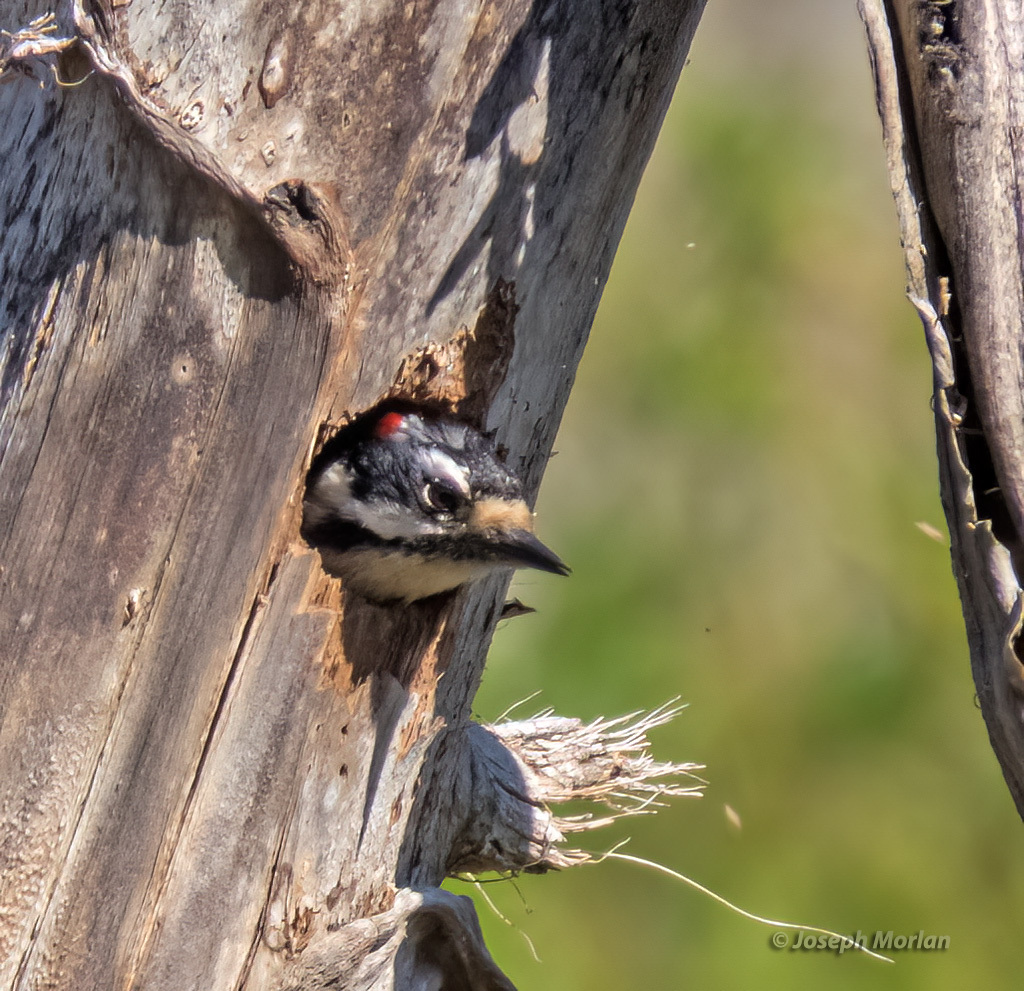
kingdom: Animalia
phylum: Chordata
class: Aves
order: Piciformes
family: Picidae
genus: Dryobates
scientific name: Dryobates pubescens
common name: Downy woodpecker
